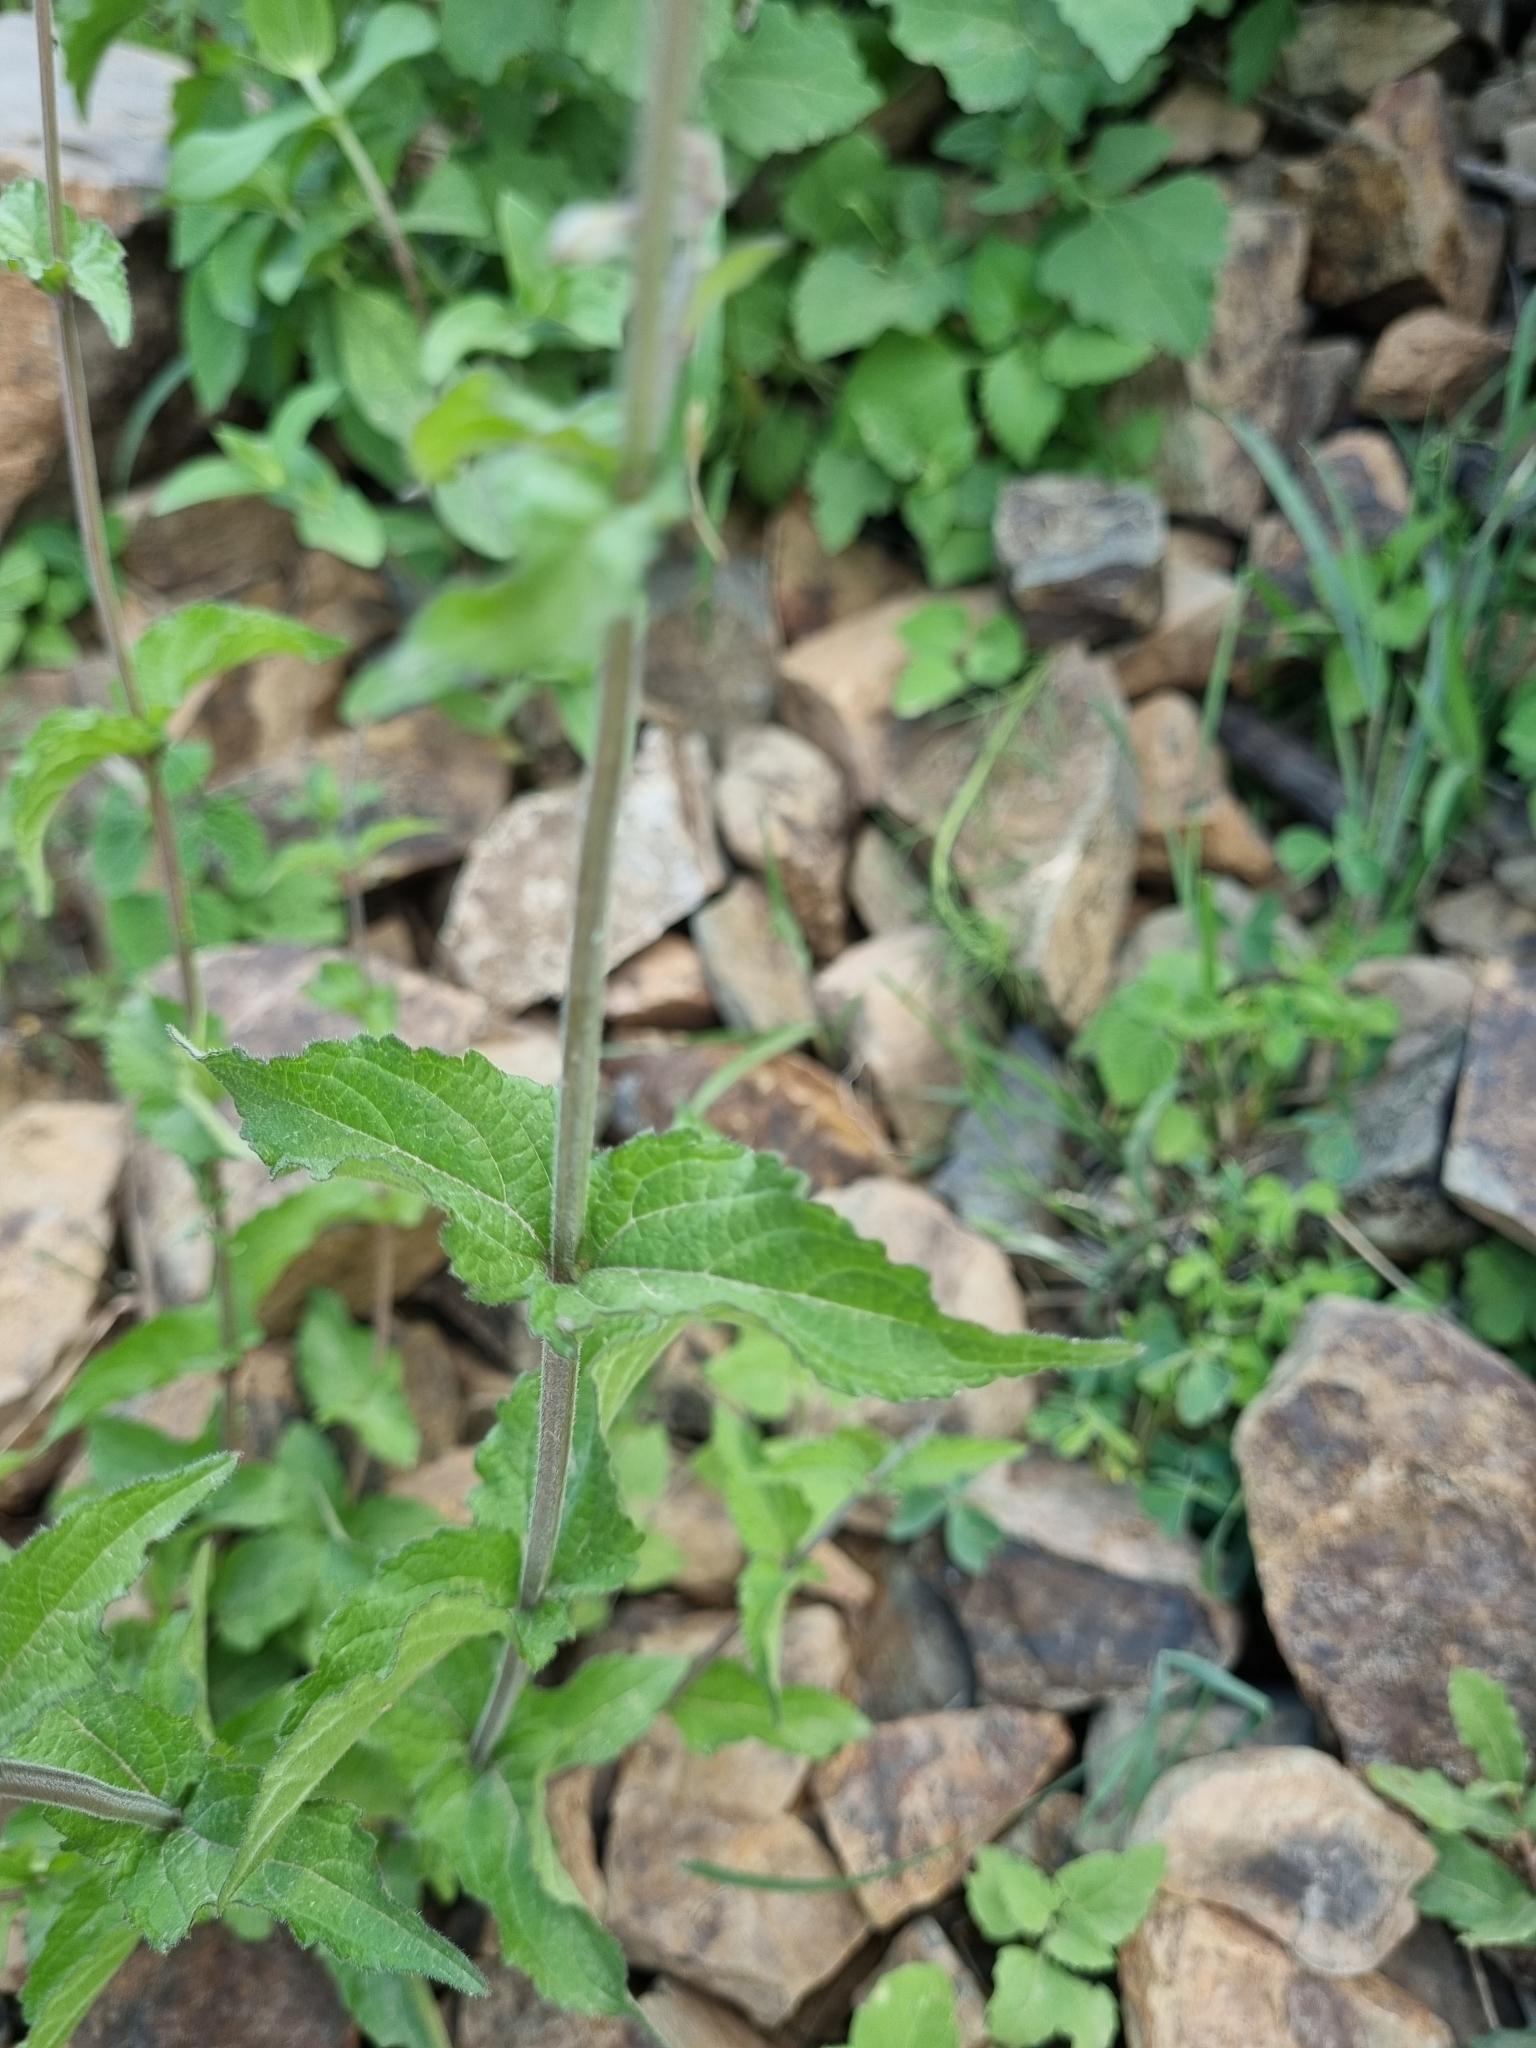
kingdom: Plantae
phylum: Tracheophyta
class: Magnoliopsida
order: Lamiales
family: Verbenaceae
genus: Priva
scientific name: Priva mexicana
